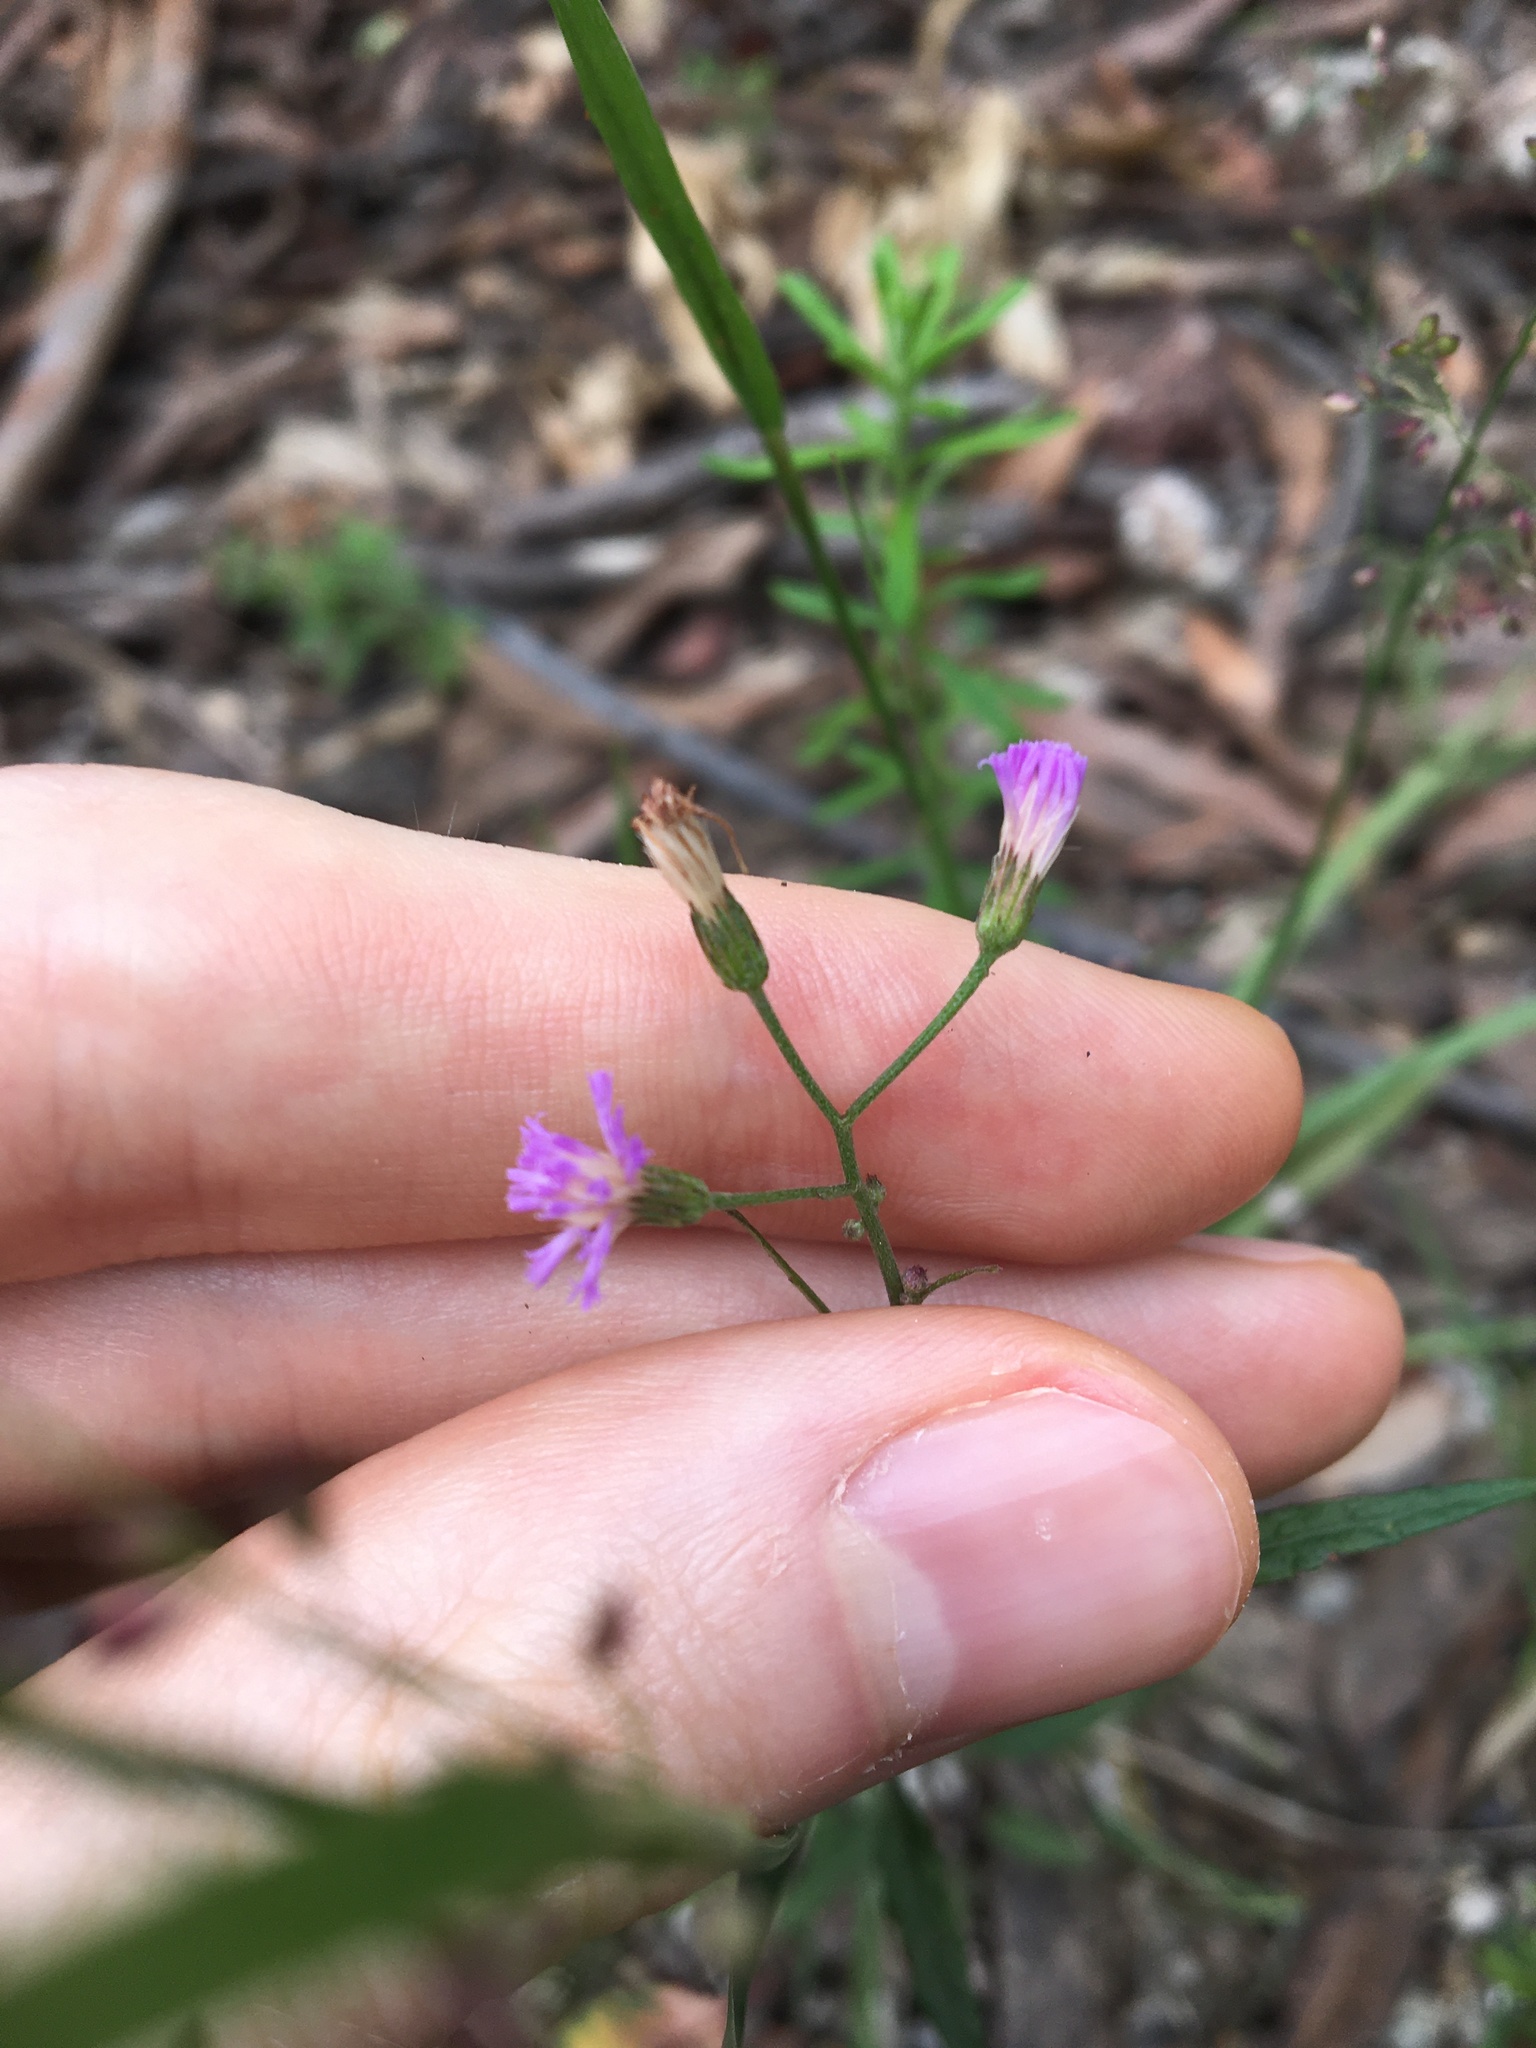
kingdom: Plantae
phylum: Tracheophyta
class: Magnoliopsida
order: Asterales
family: Asteraceae
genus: Cyanthillium
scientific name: Cyanthillium cinereum
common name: Little ironweed
